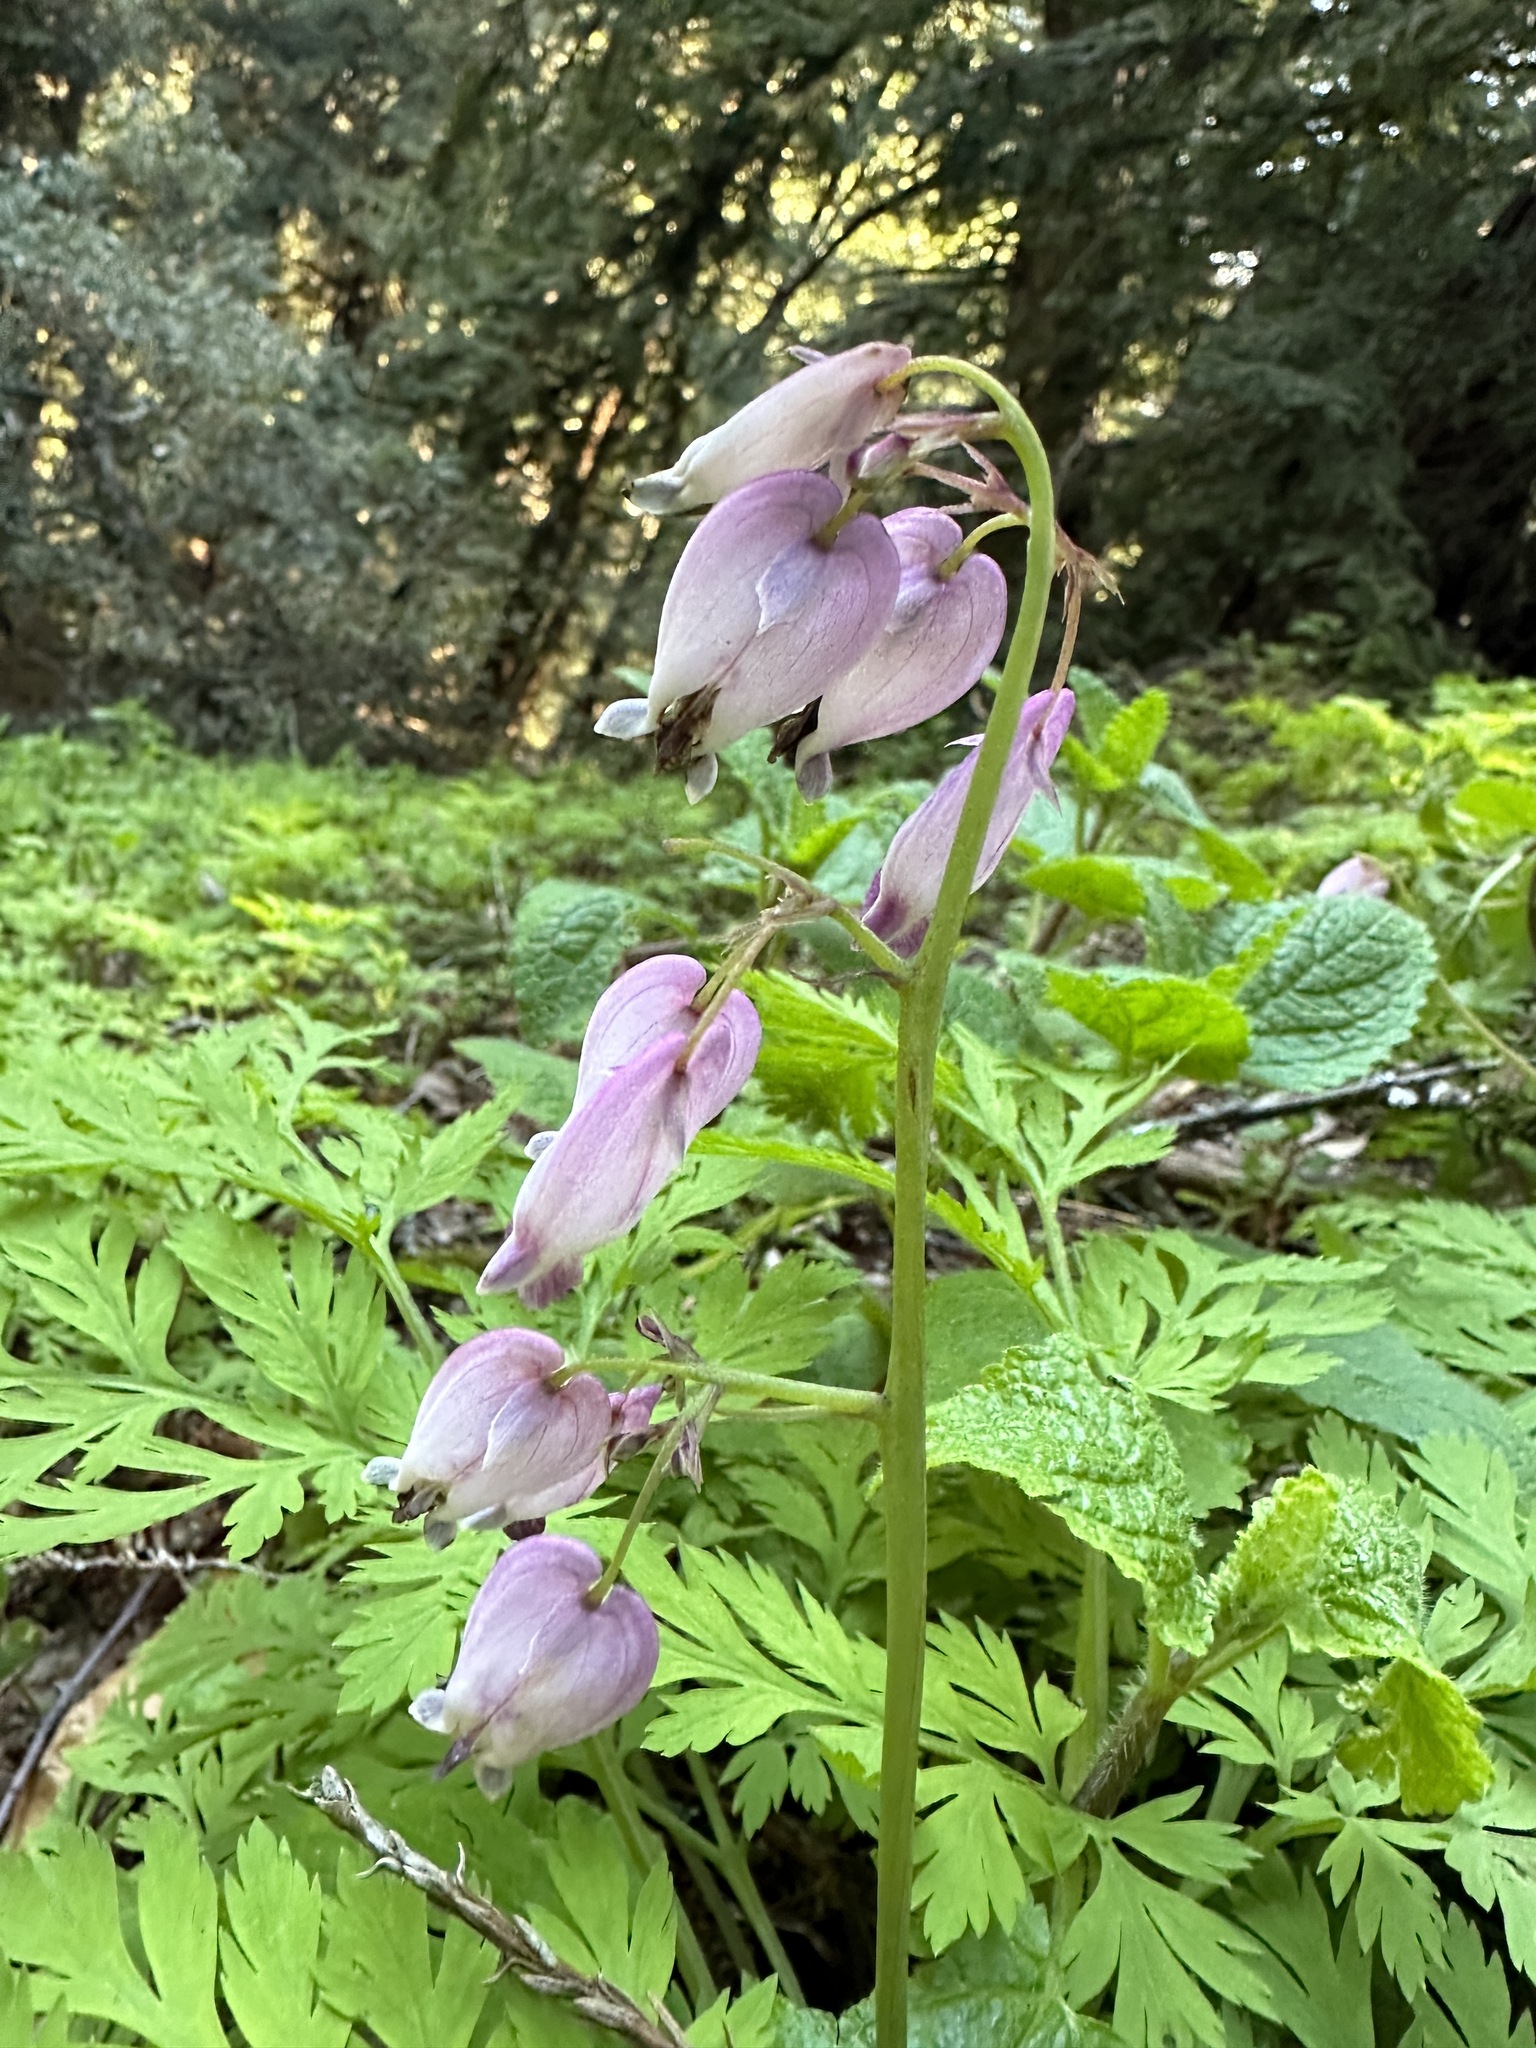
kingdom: Plantae
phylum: Tracheophyta
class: Magnoliopsida
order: Ranunculales
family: Papaveraceae
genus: Dicentra
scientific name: Dicentra formosa
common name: Bleeding-heart
